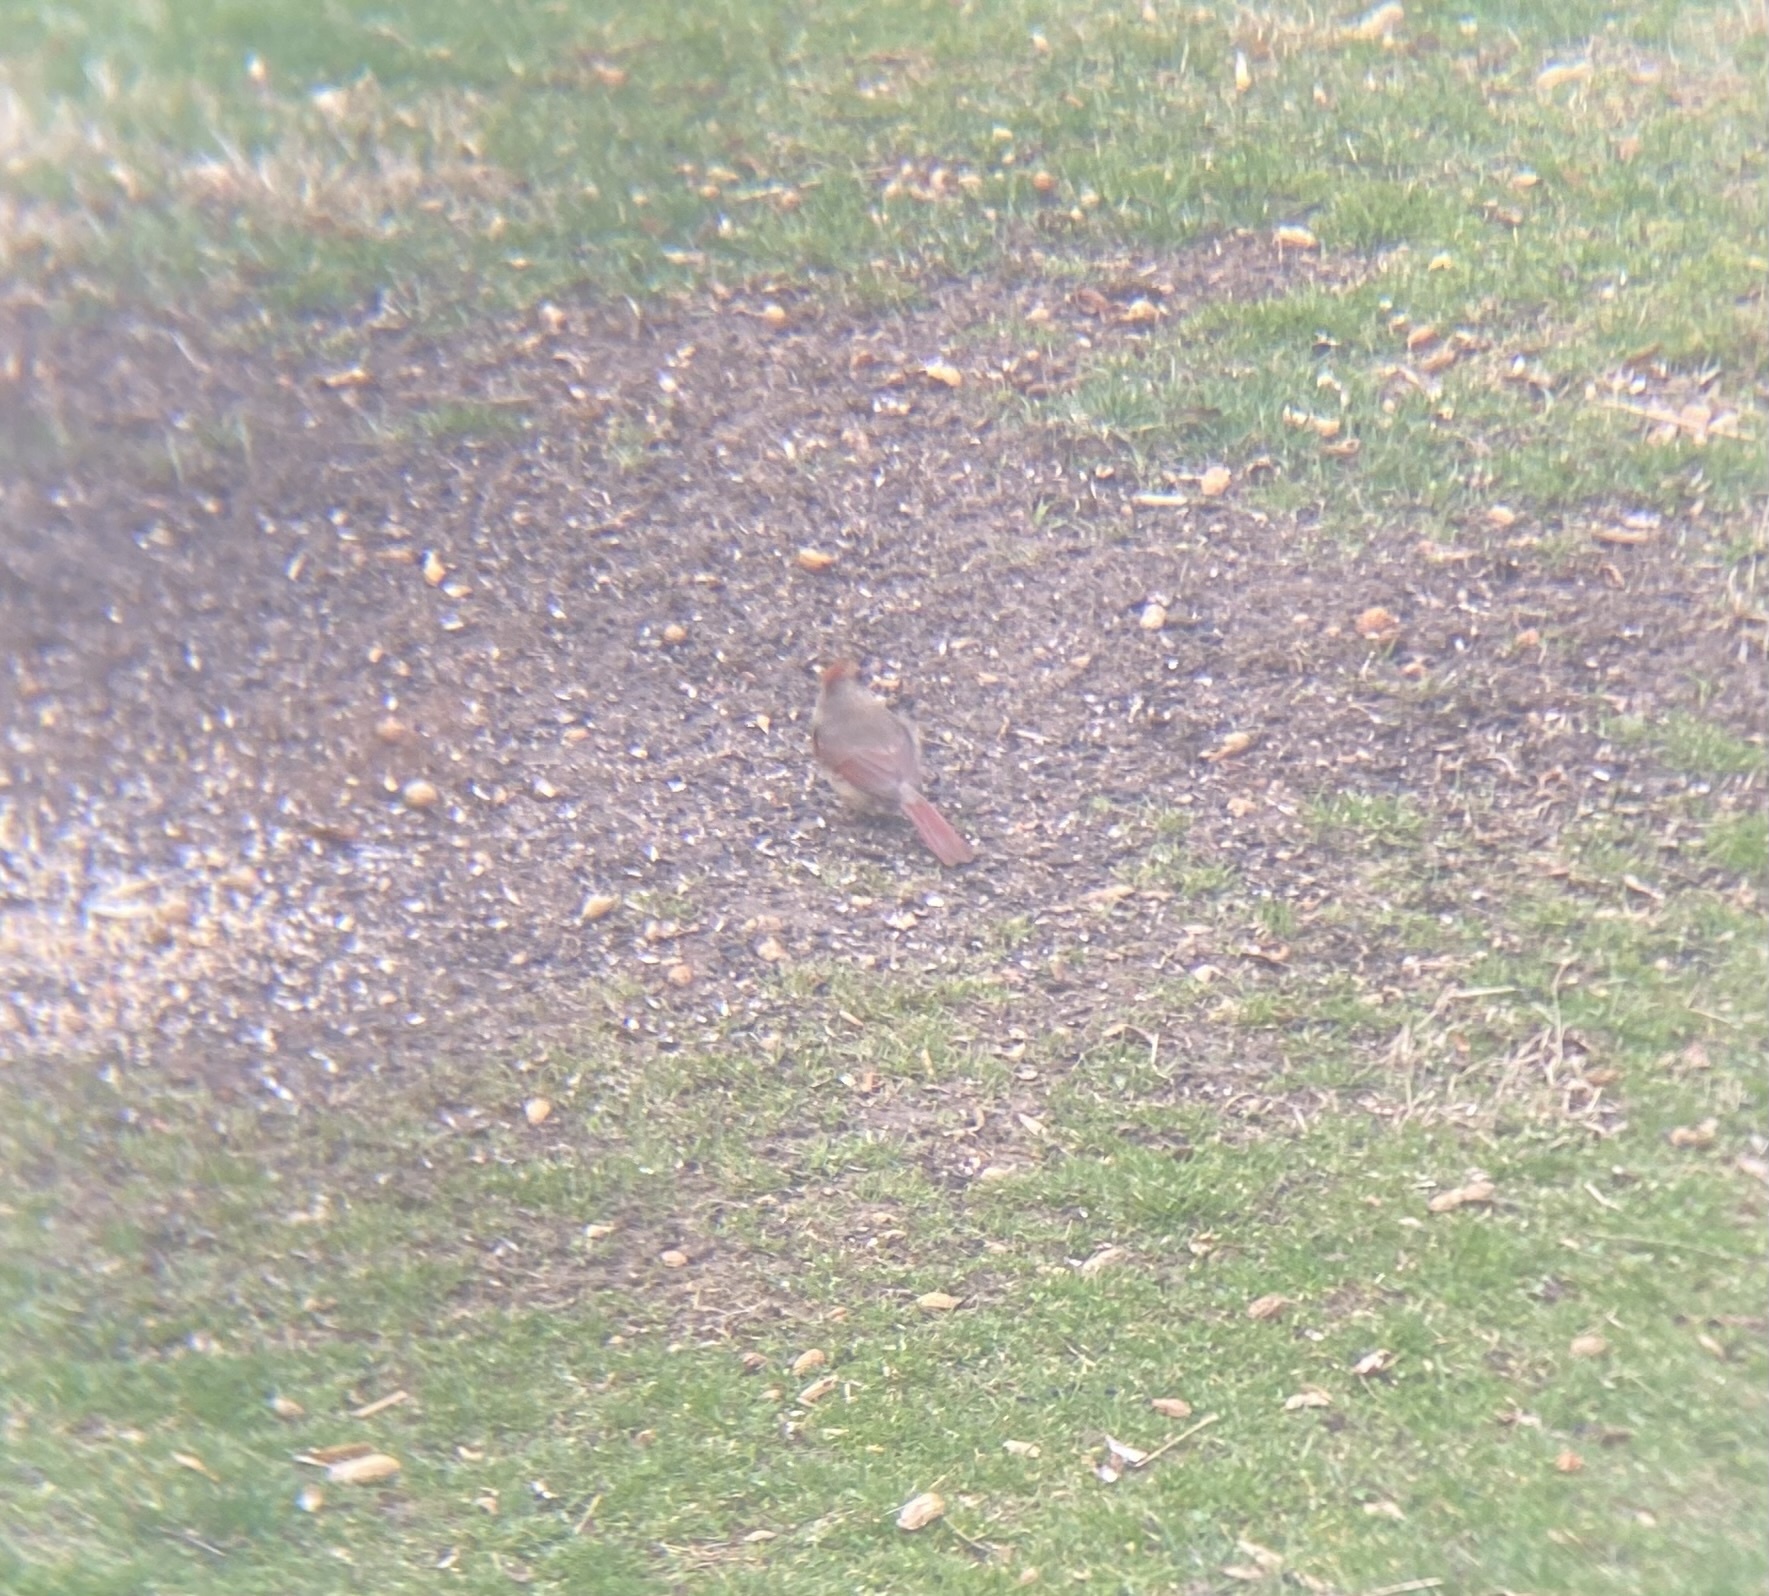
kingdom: Animalia
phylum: Chordata
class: Aves
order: Passeriformes
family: Cardinalidae
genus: Cardinalis
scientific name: Cardinalis cardinalis
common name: Northern cardinal
